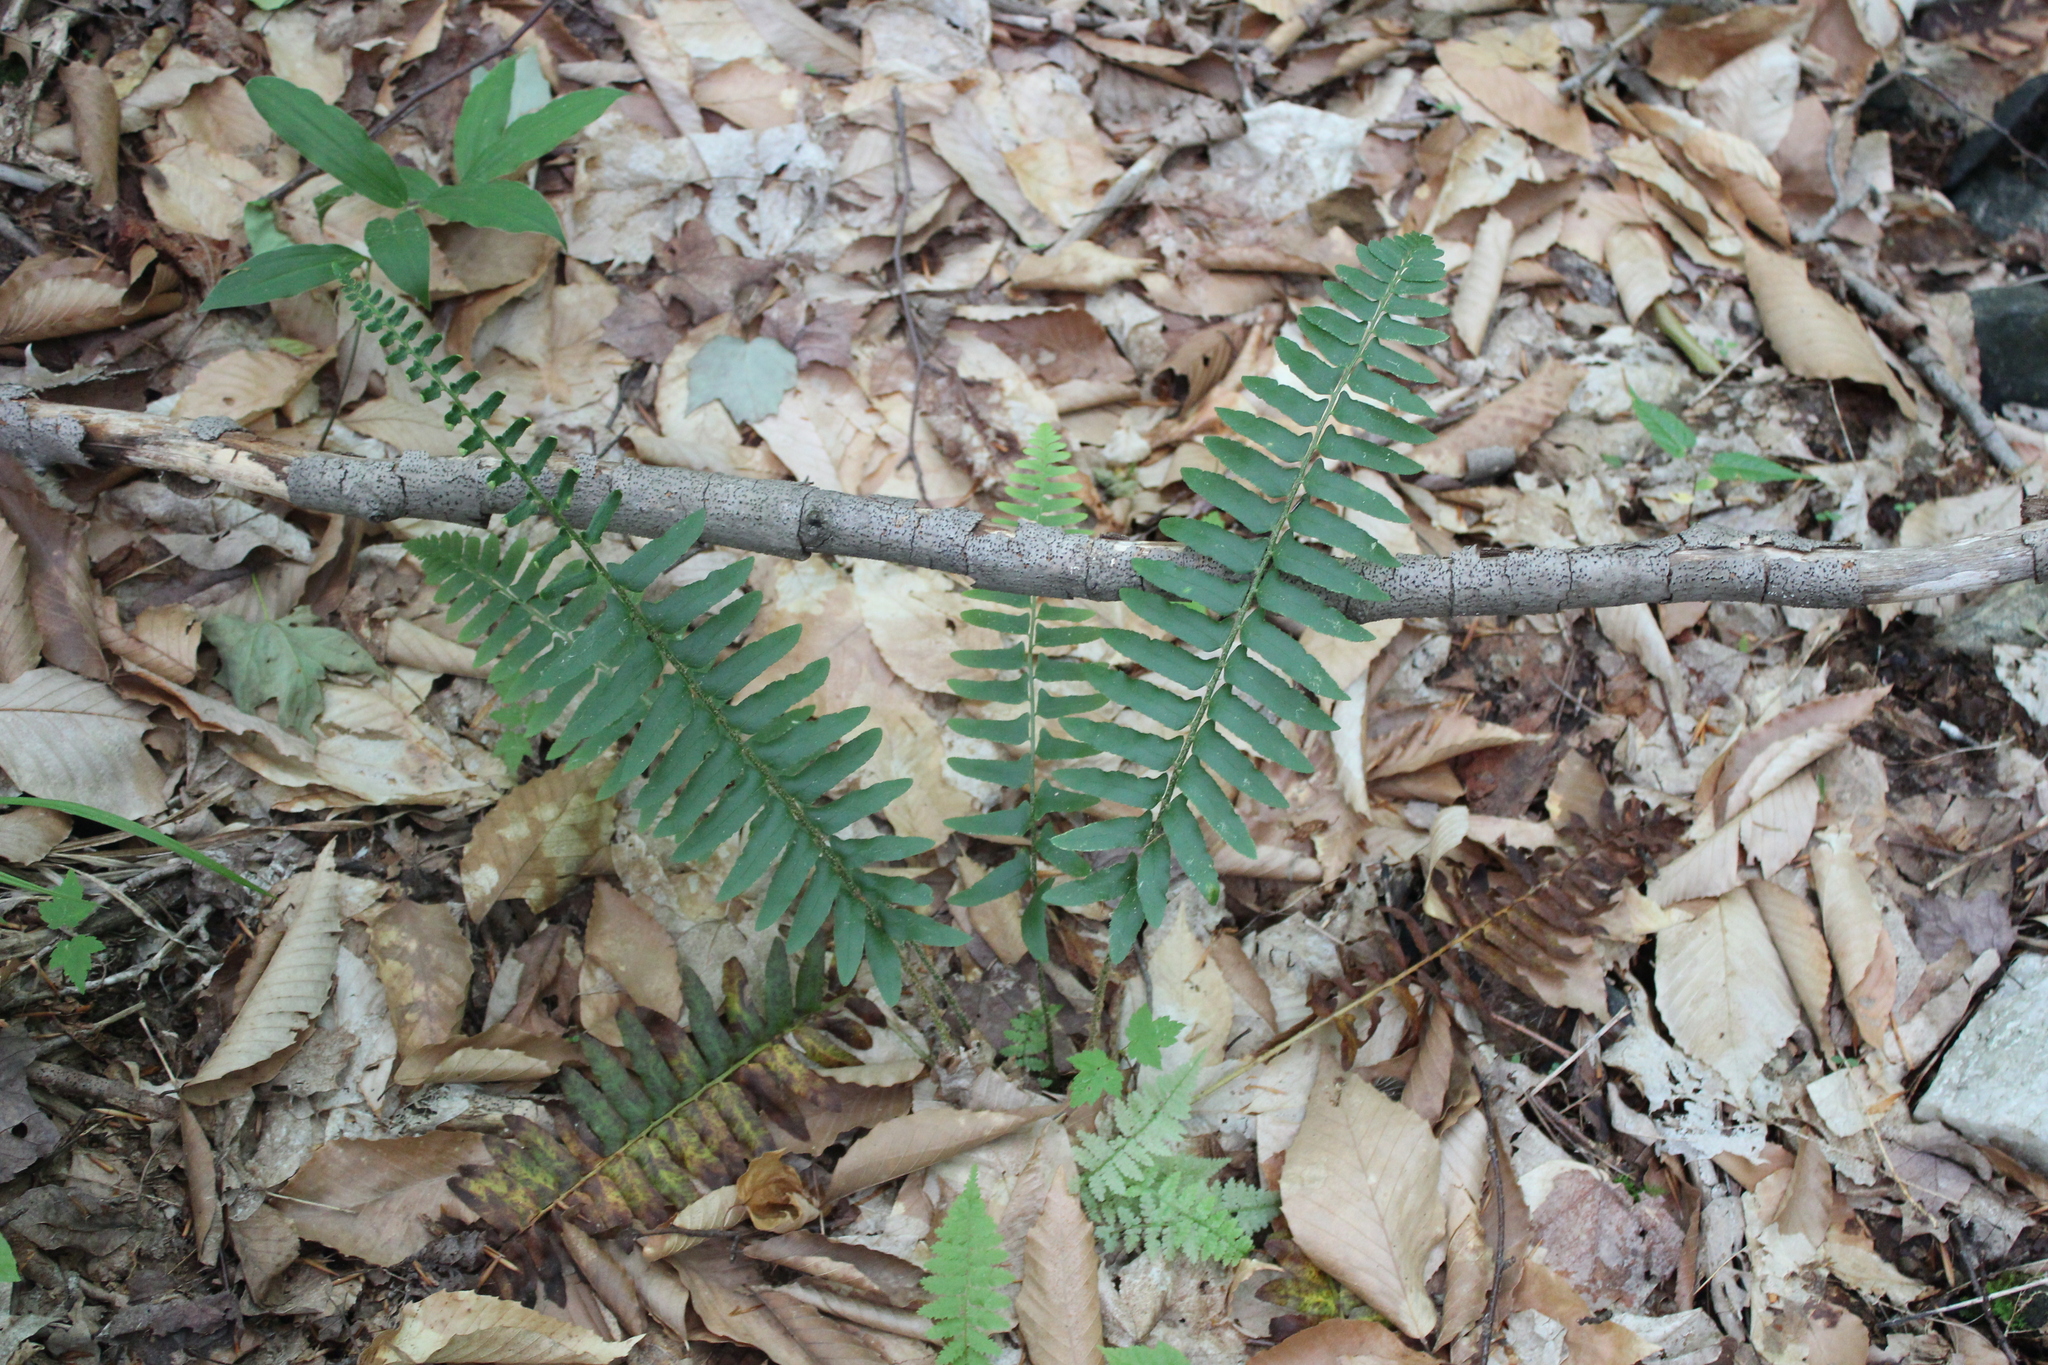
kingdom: Plantae
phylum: Tracheophyta
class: Polypodiopsida
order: Polypodiales
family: Dryopteridaceae
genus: Polystichum
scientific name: Polystichum acrostichoides
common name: Christmas fern
